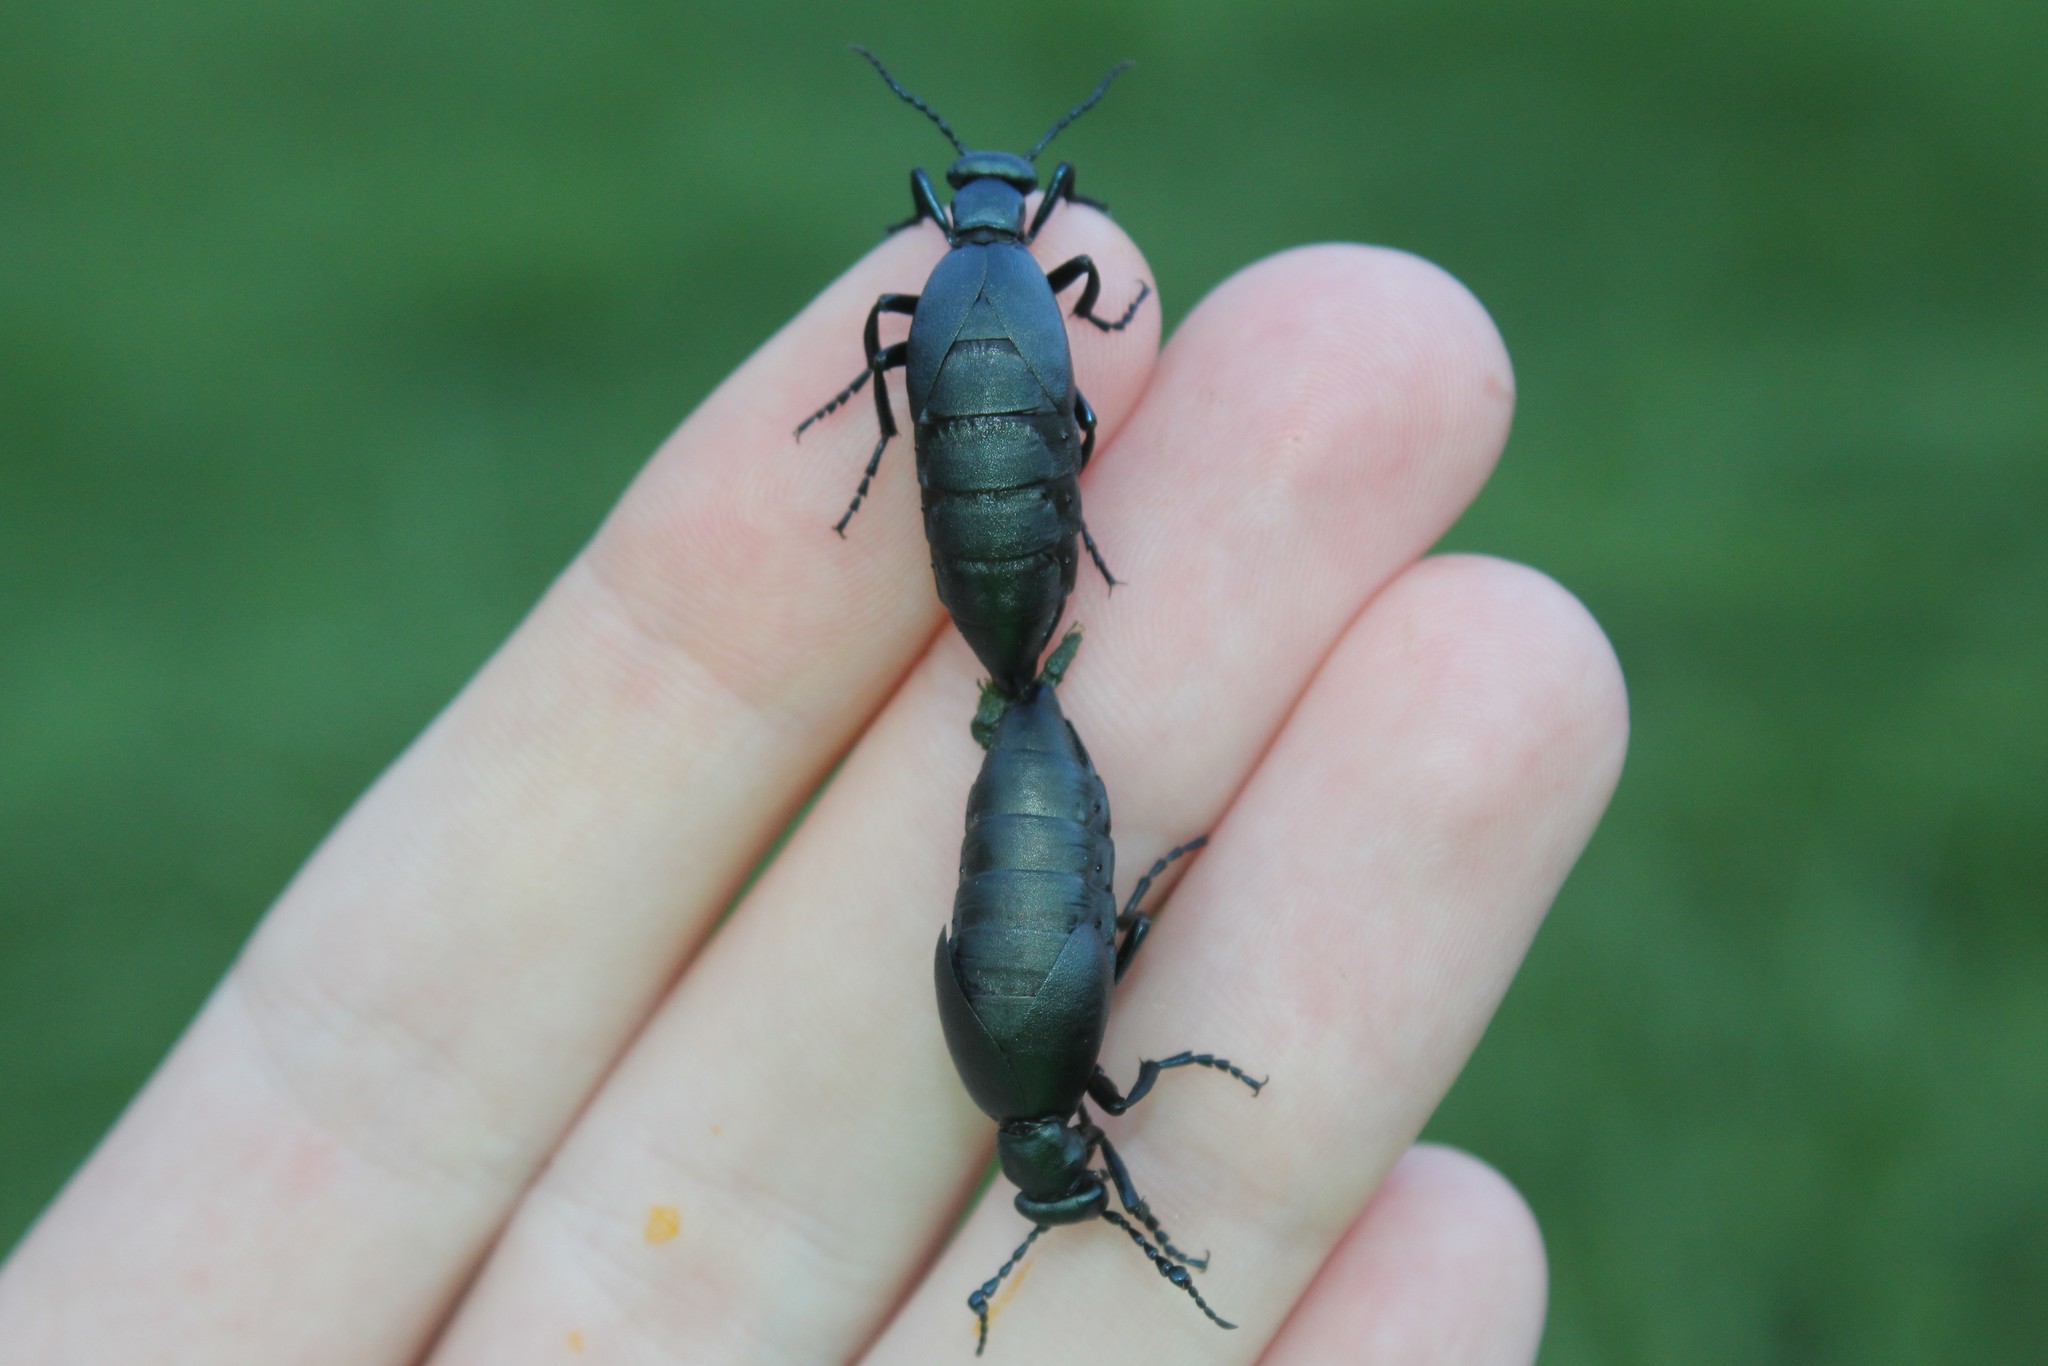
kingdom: Animalia
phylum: Arthropoda
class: Insecta
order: Coleoptera
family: Meloidae
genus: Meloe
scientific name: Meloe campanicollis
